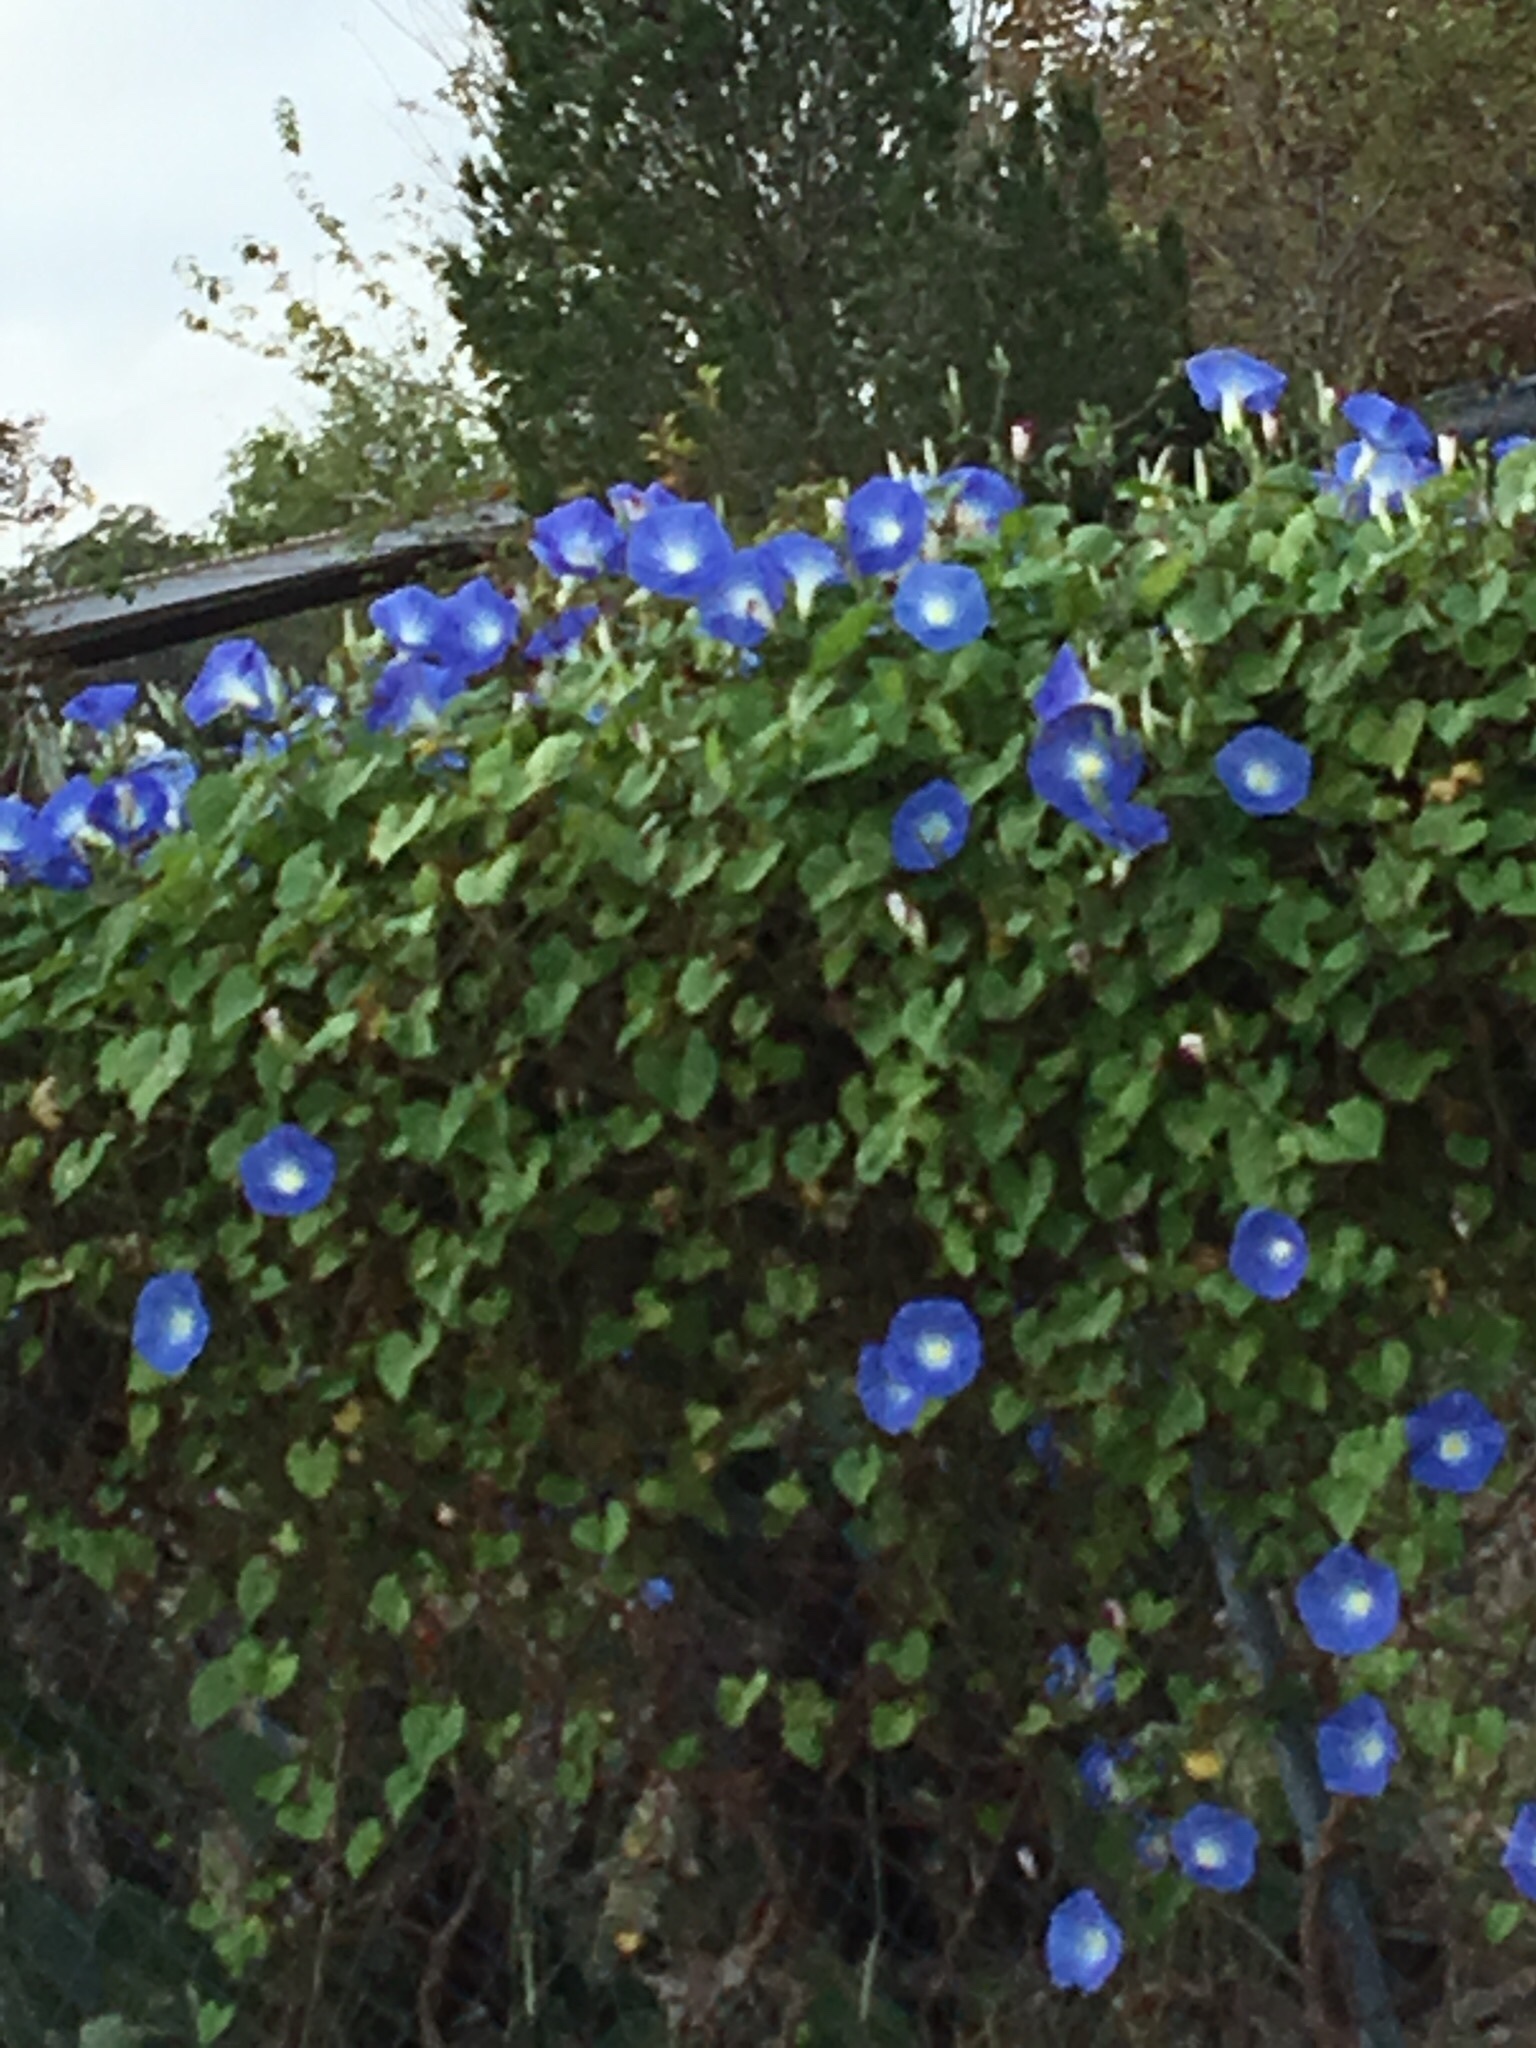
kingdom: Plantae
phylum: Tracheophyta
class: Magnoliopsida
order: Solanales
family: Convolvulaceae
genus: Ipomoea
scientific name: Ipomoea tricolor
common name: Morning-glory
